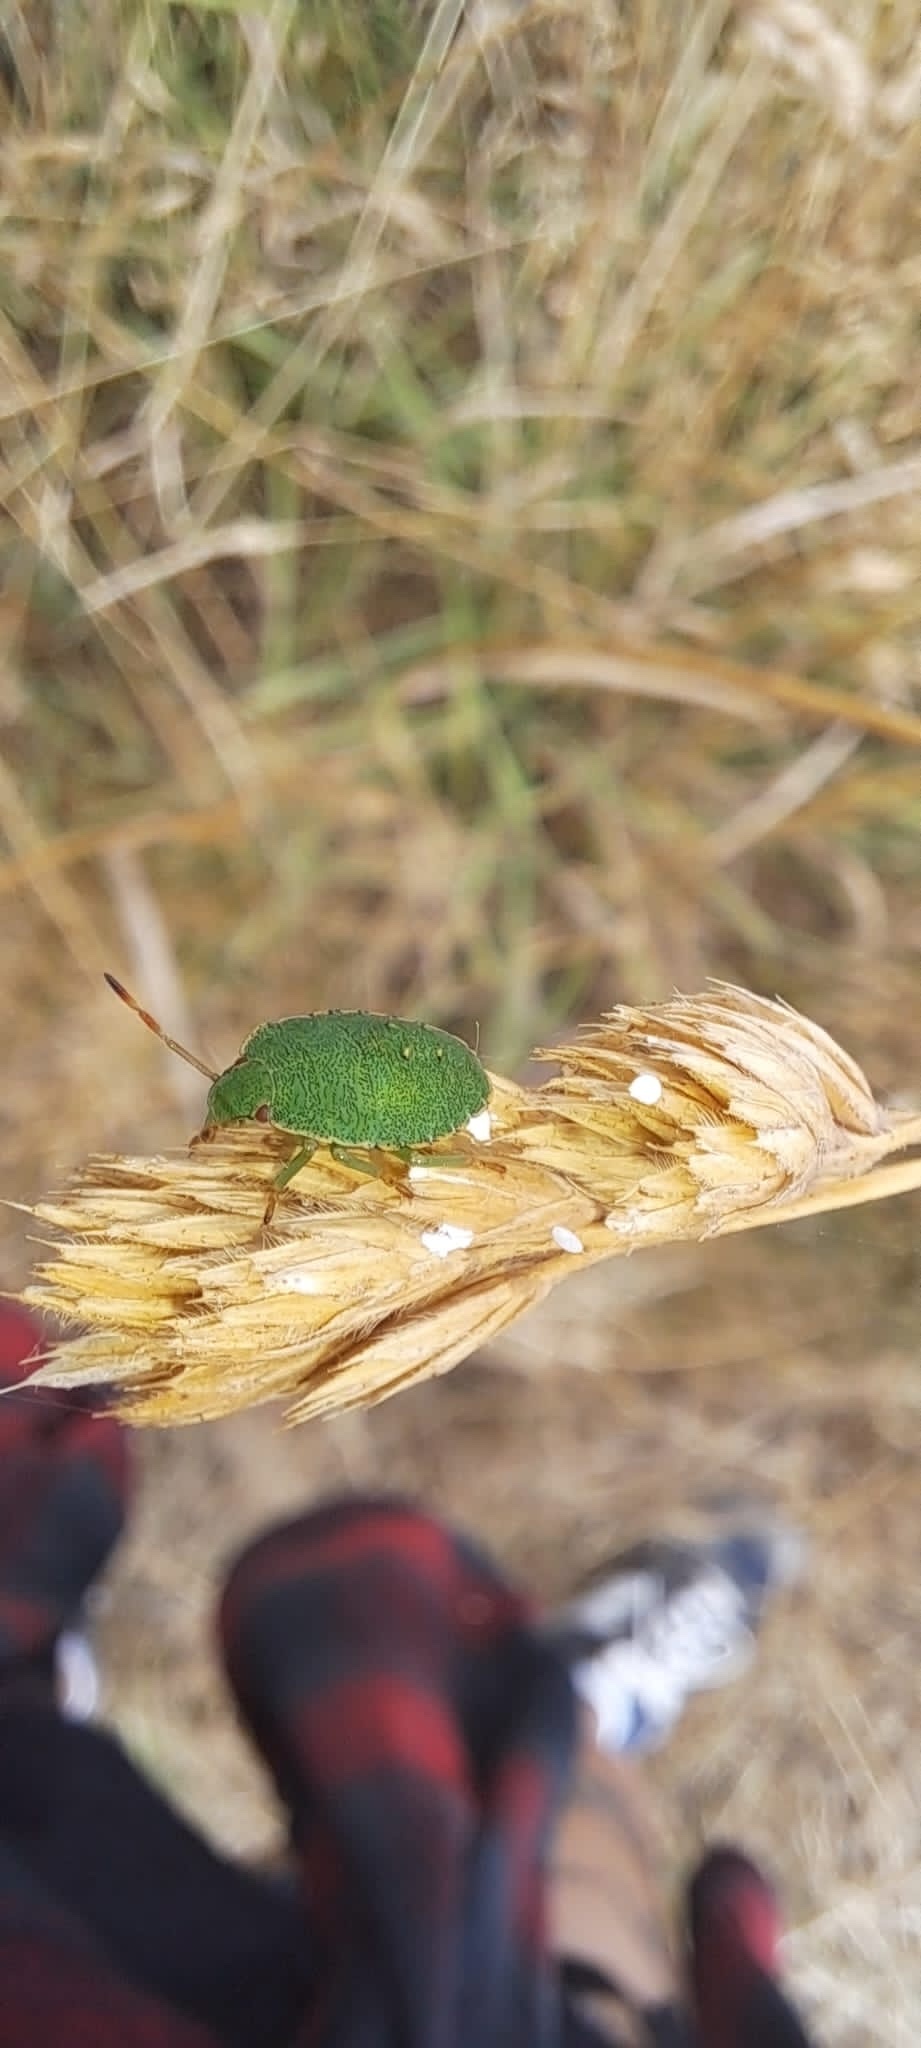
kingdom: Animalia
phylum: Arthropoda
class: Insecta
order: Hemiptera
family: Pentatomidae
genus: Palomena
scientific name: Palomena prasina
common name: Green shieldbug
